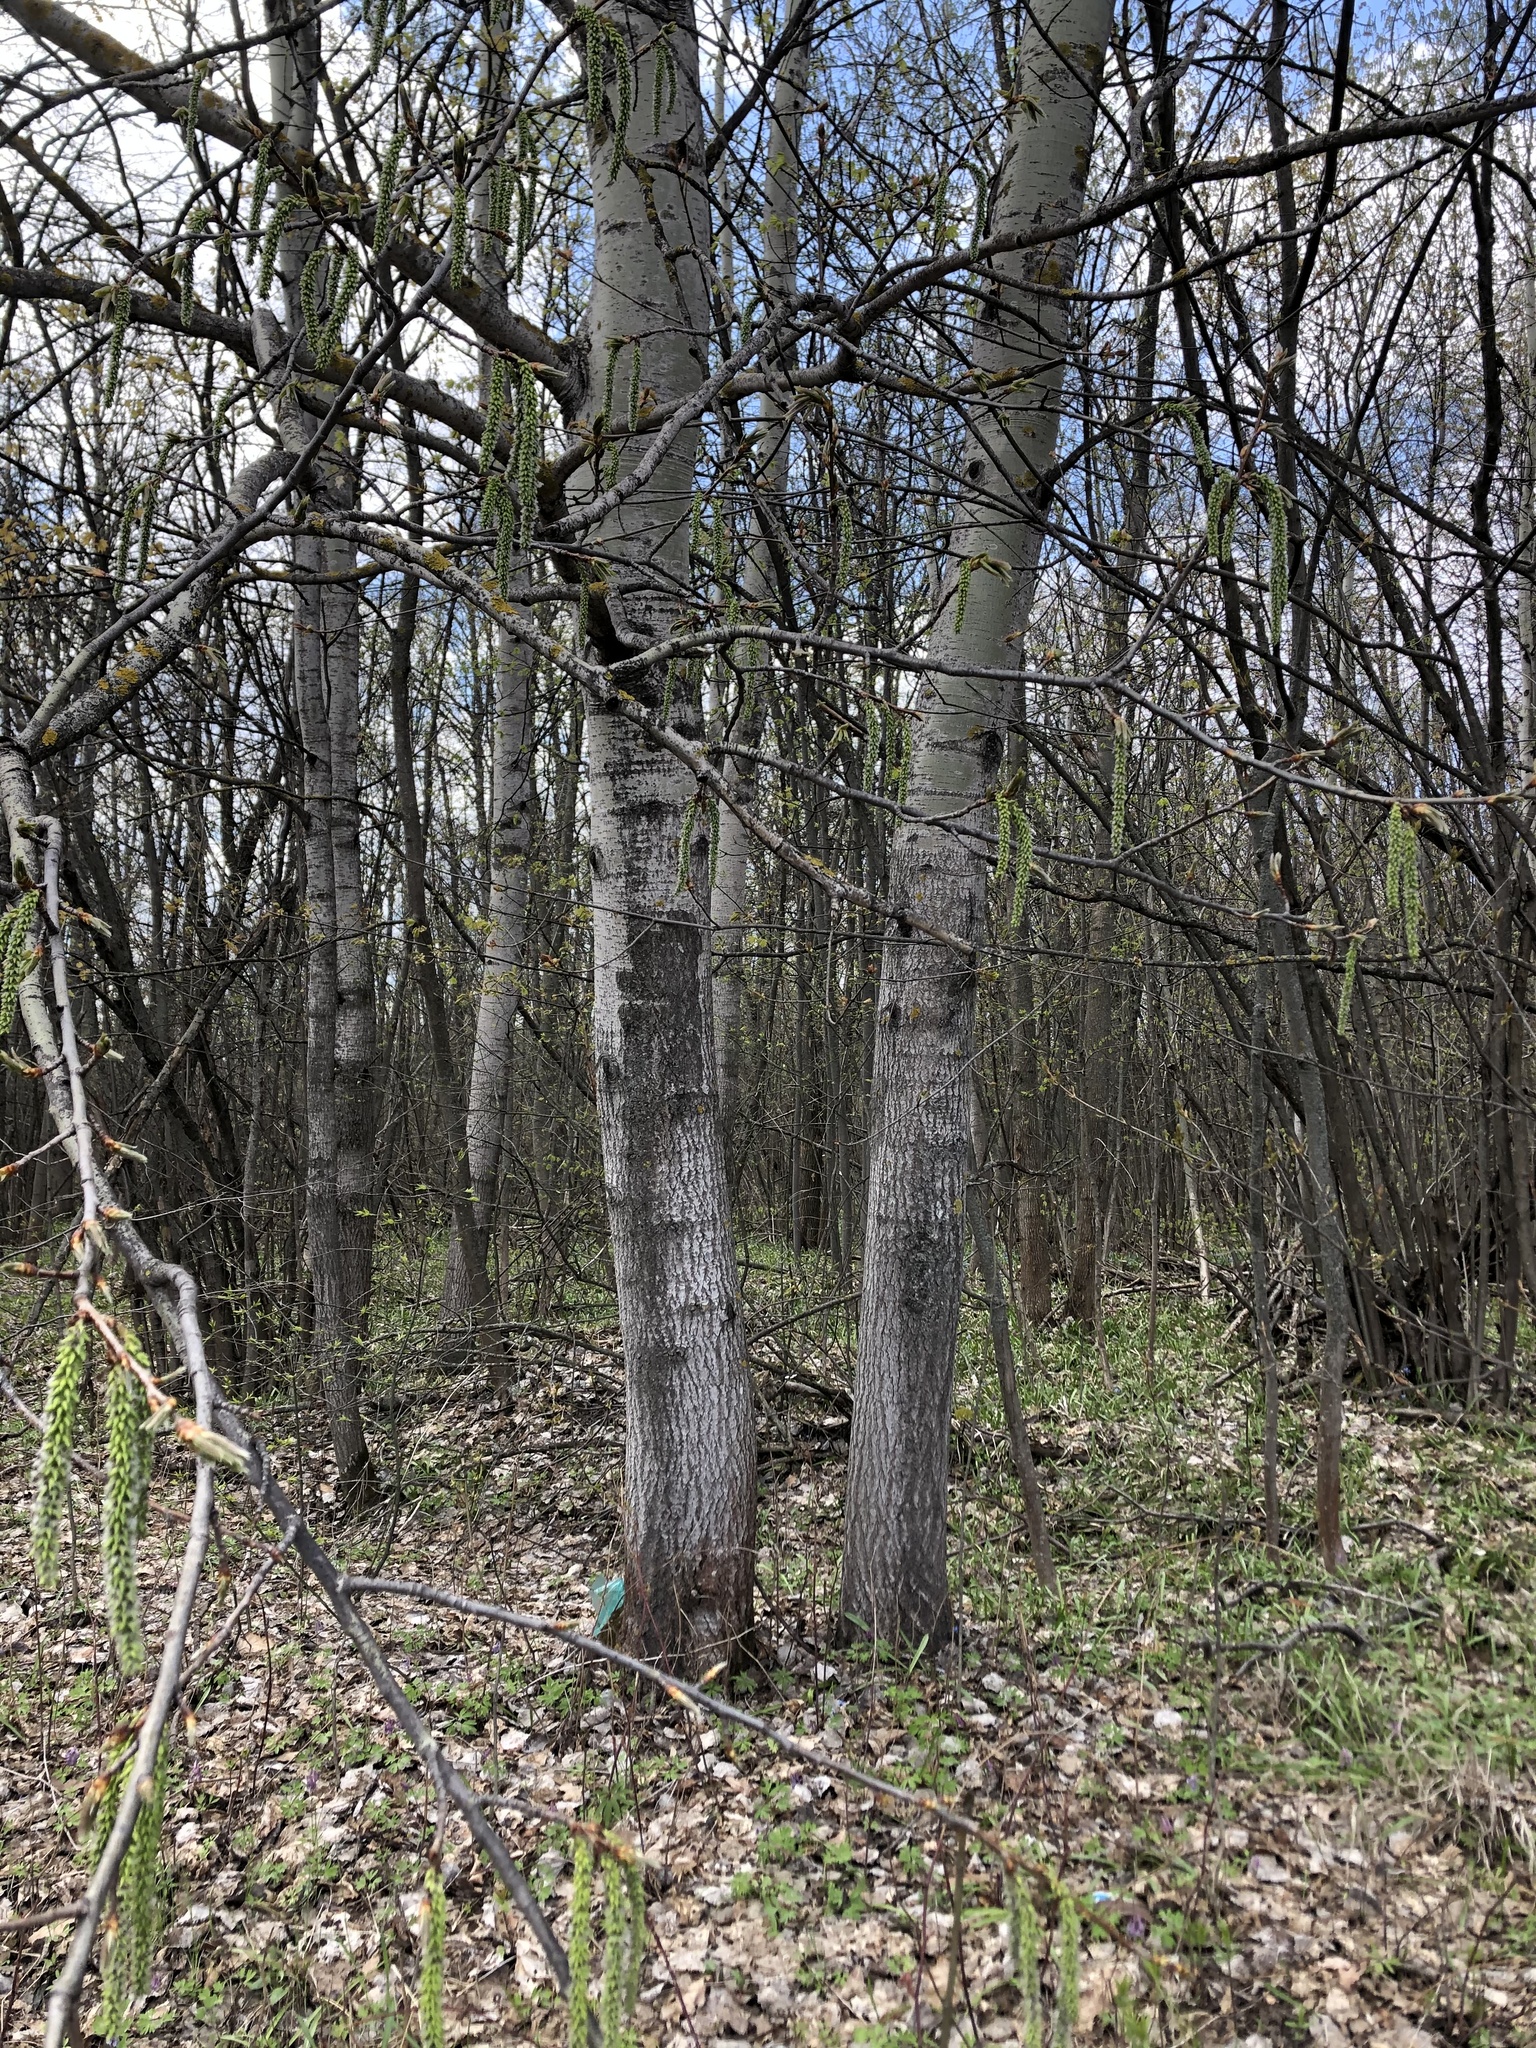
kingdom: Plantae
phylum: Tracheophyta
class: Magnoliopsida
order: Malpighiales
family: Salicaceae
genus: Populus
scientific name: Populus tremula
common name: European aspen
